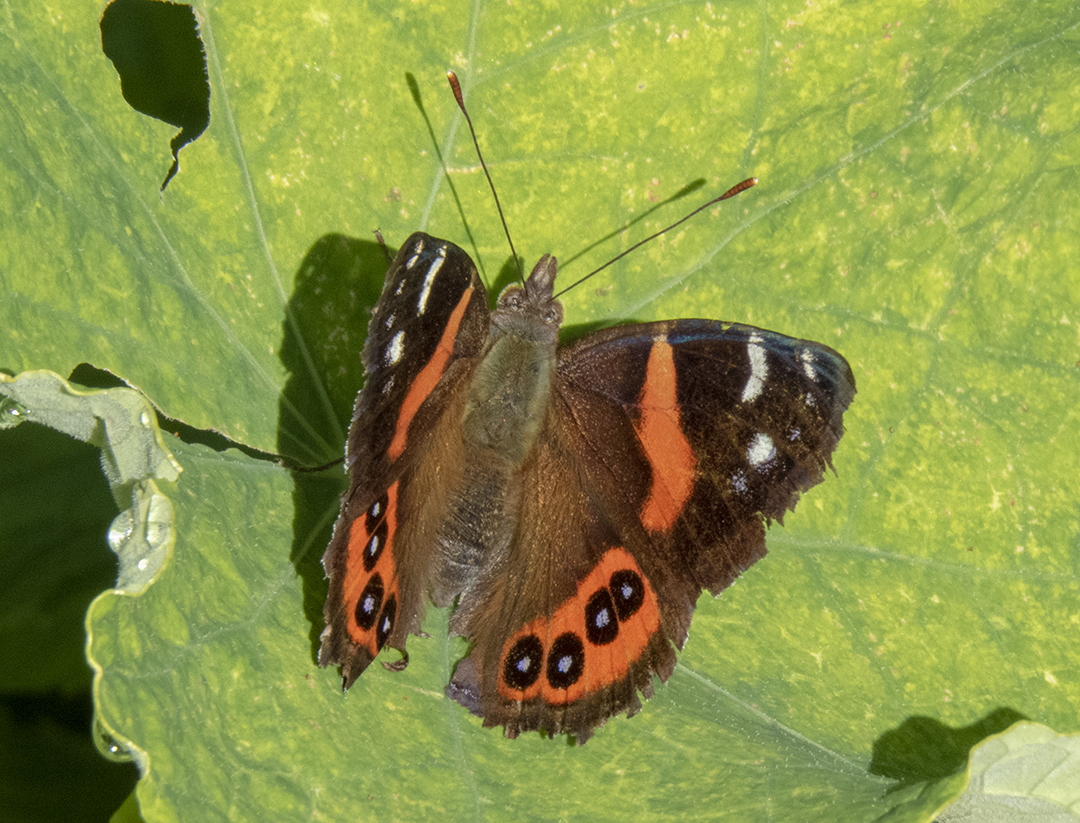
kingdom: Animalia
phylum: Arthropoda
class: Insecta
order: Lepidoptera
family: Nymphalidae
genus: Vanessa
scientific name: Vanessa gonerilla
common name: New zealand red admiral
